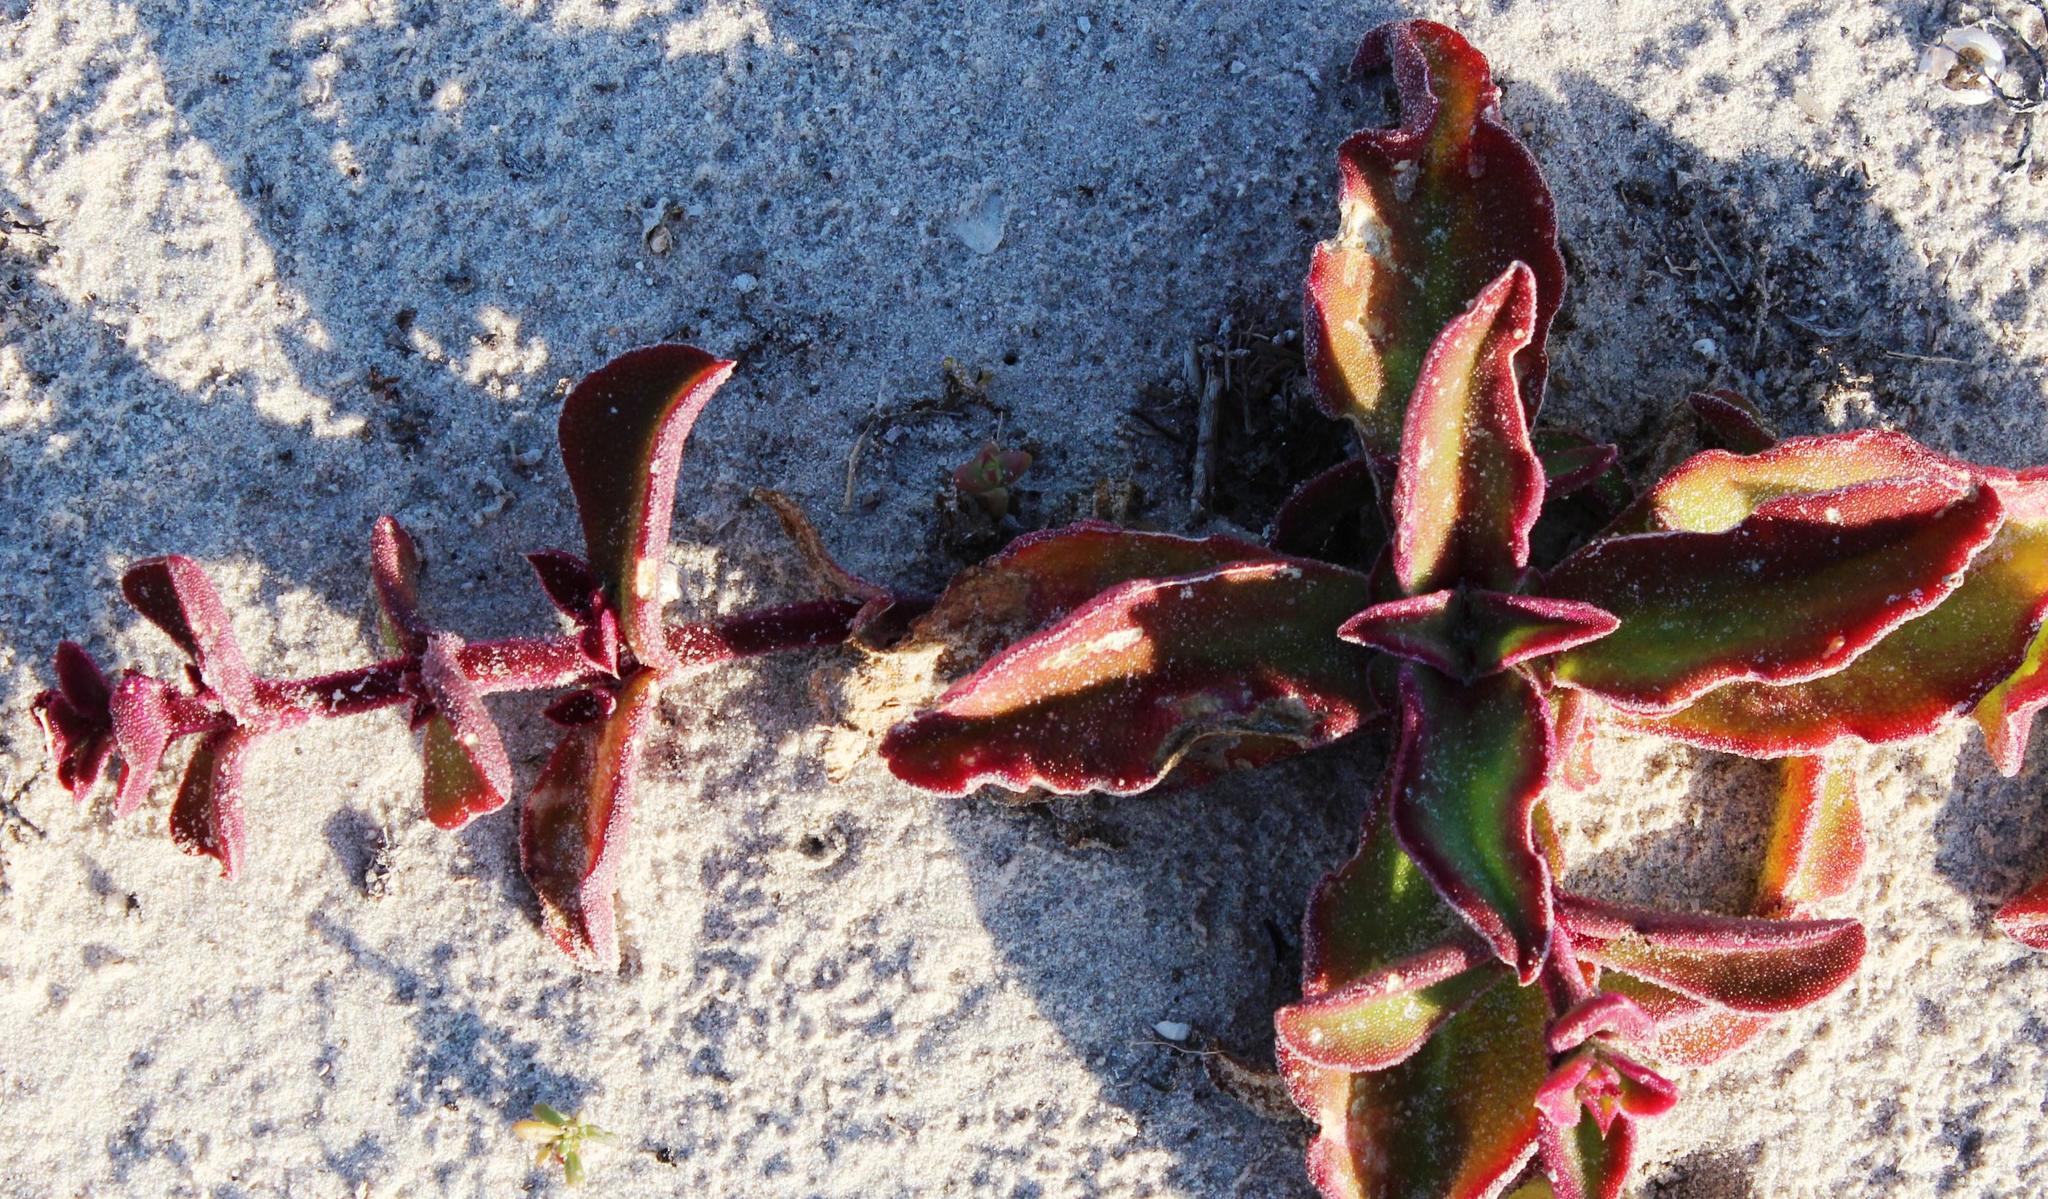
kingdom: Plantae
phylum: Tracheophyta
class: Magnoliopsida
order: Caryophyllales
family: Aizoaceae
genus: Mesembryanthemum
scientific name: Mesembryanthemum guerichianum
